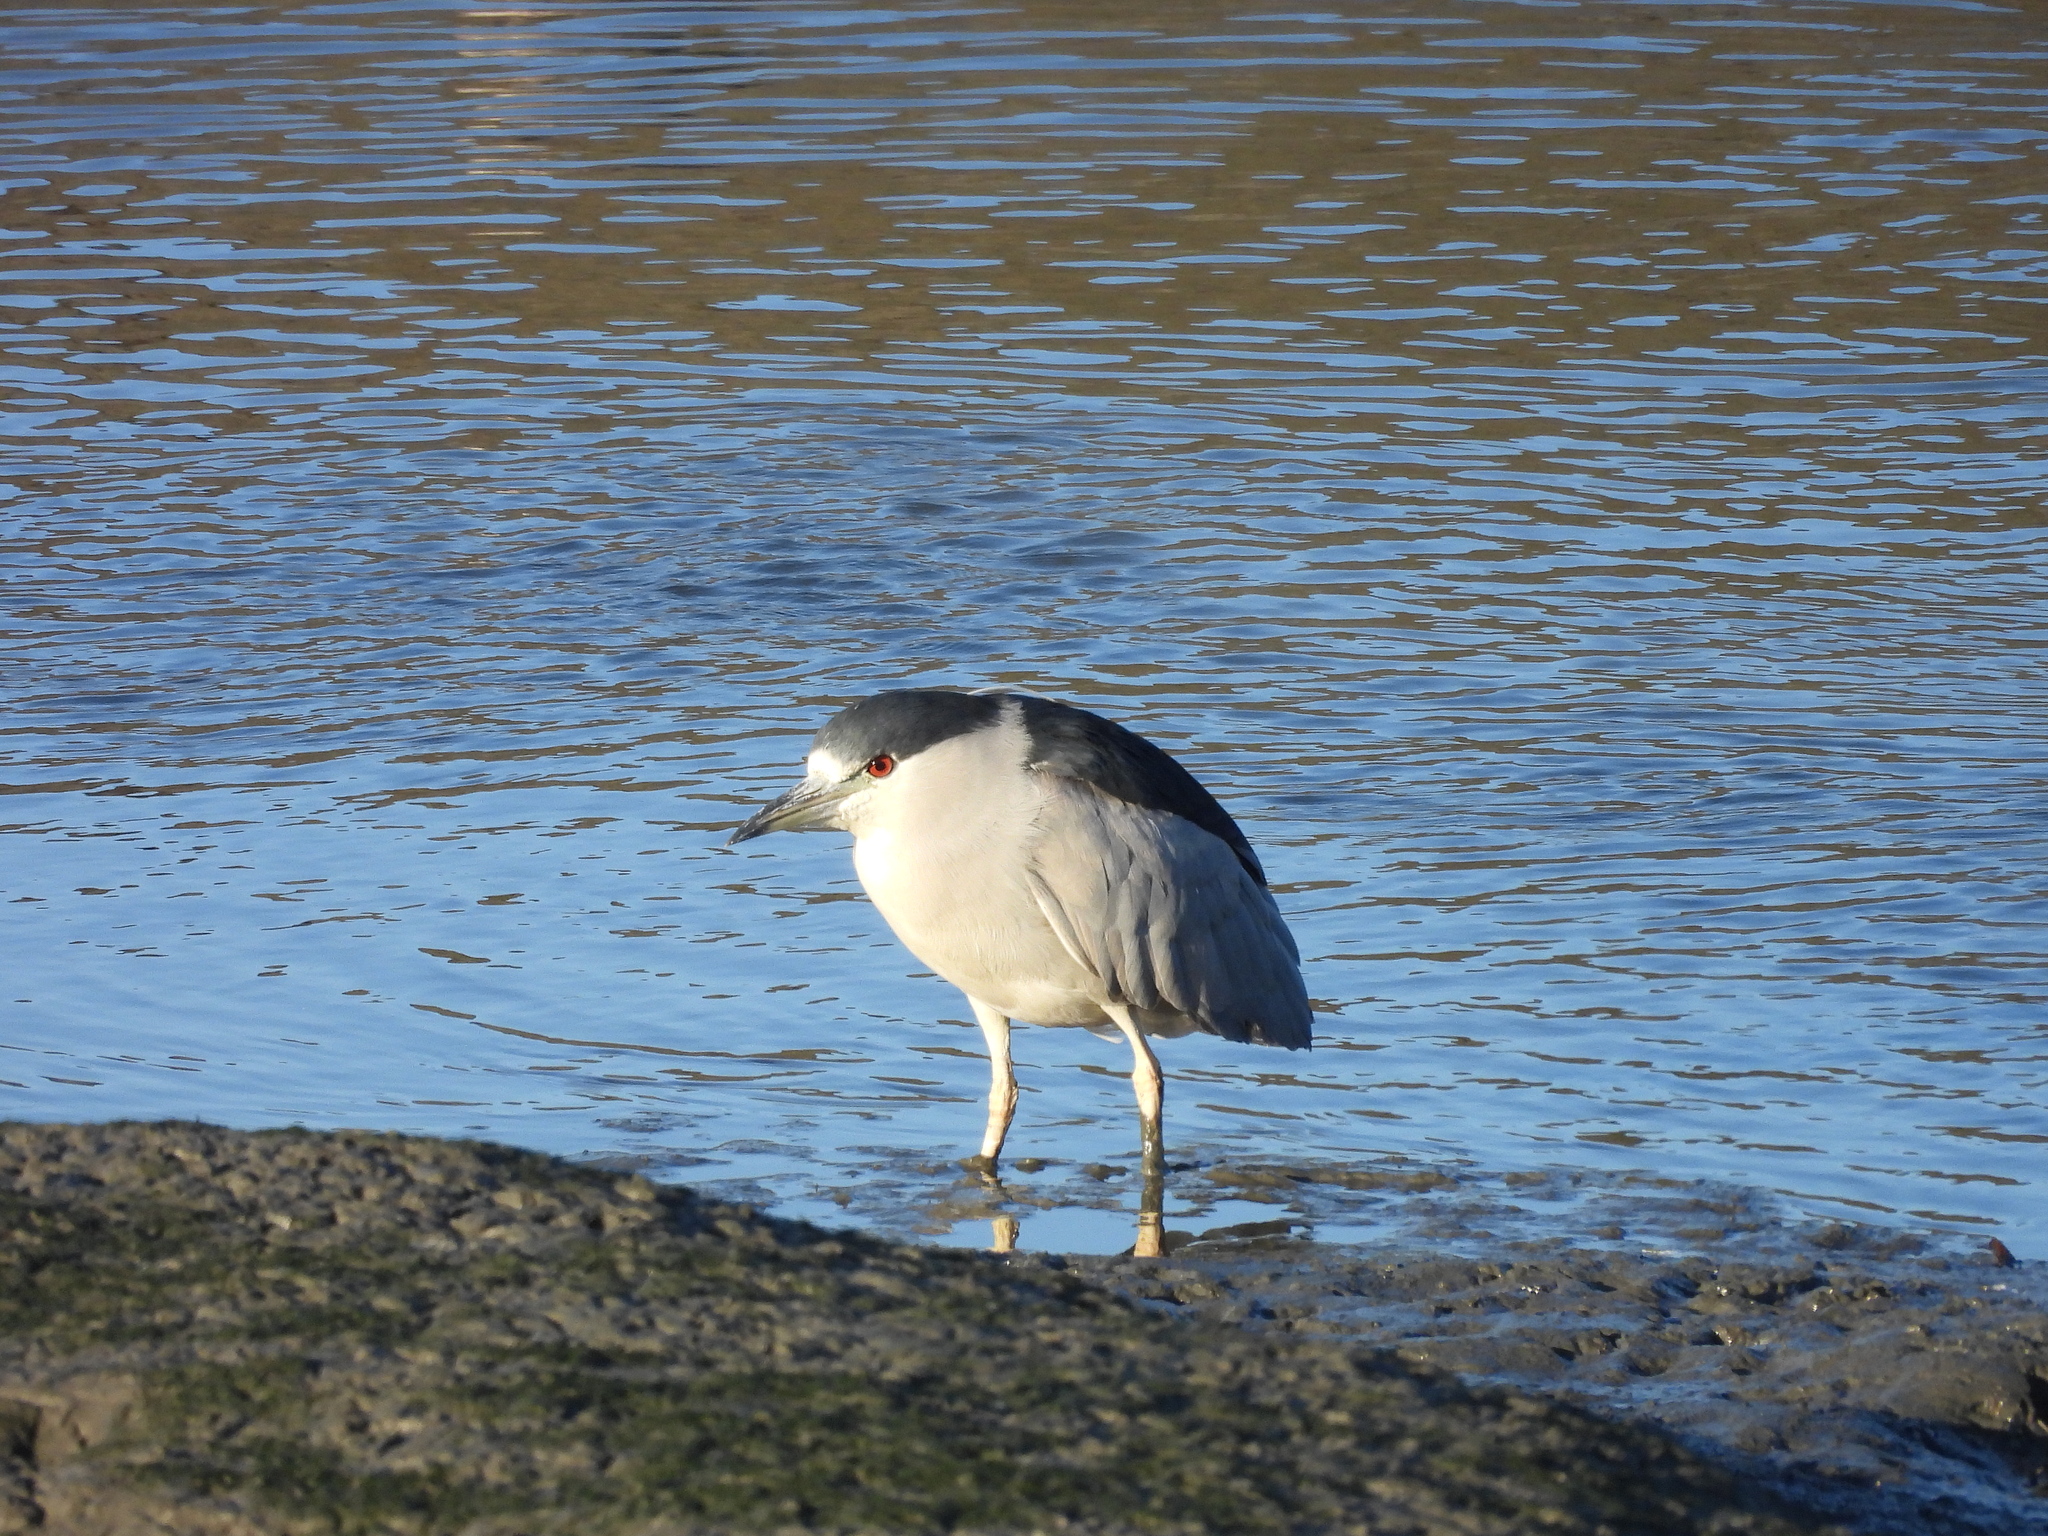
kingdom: Animalia
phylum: Chordata
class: Aves
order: Pelecaniformes
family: Ardeidae
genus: Nycticorax
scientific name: Nycticorax nycticorax
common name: Black-crowned night heron
